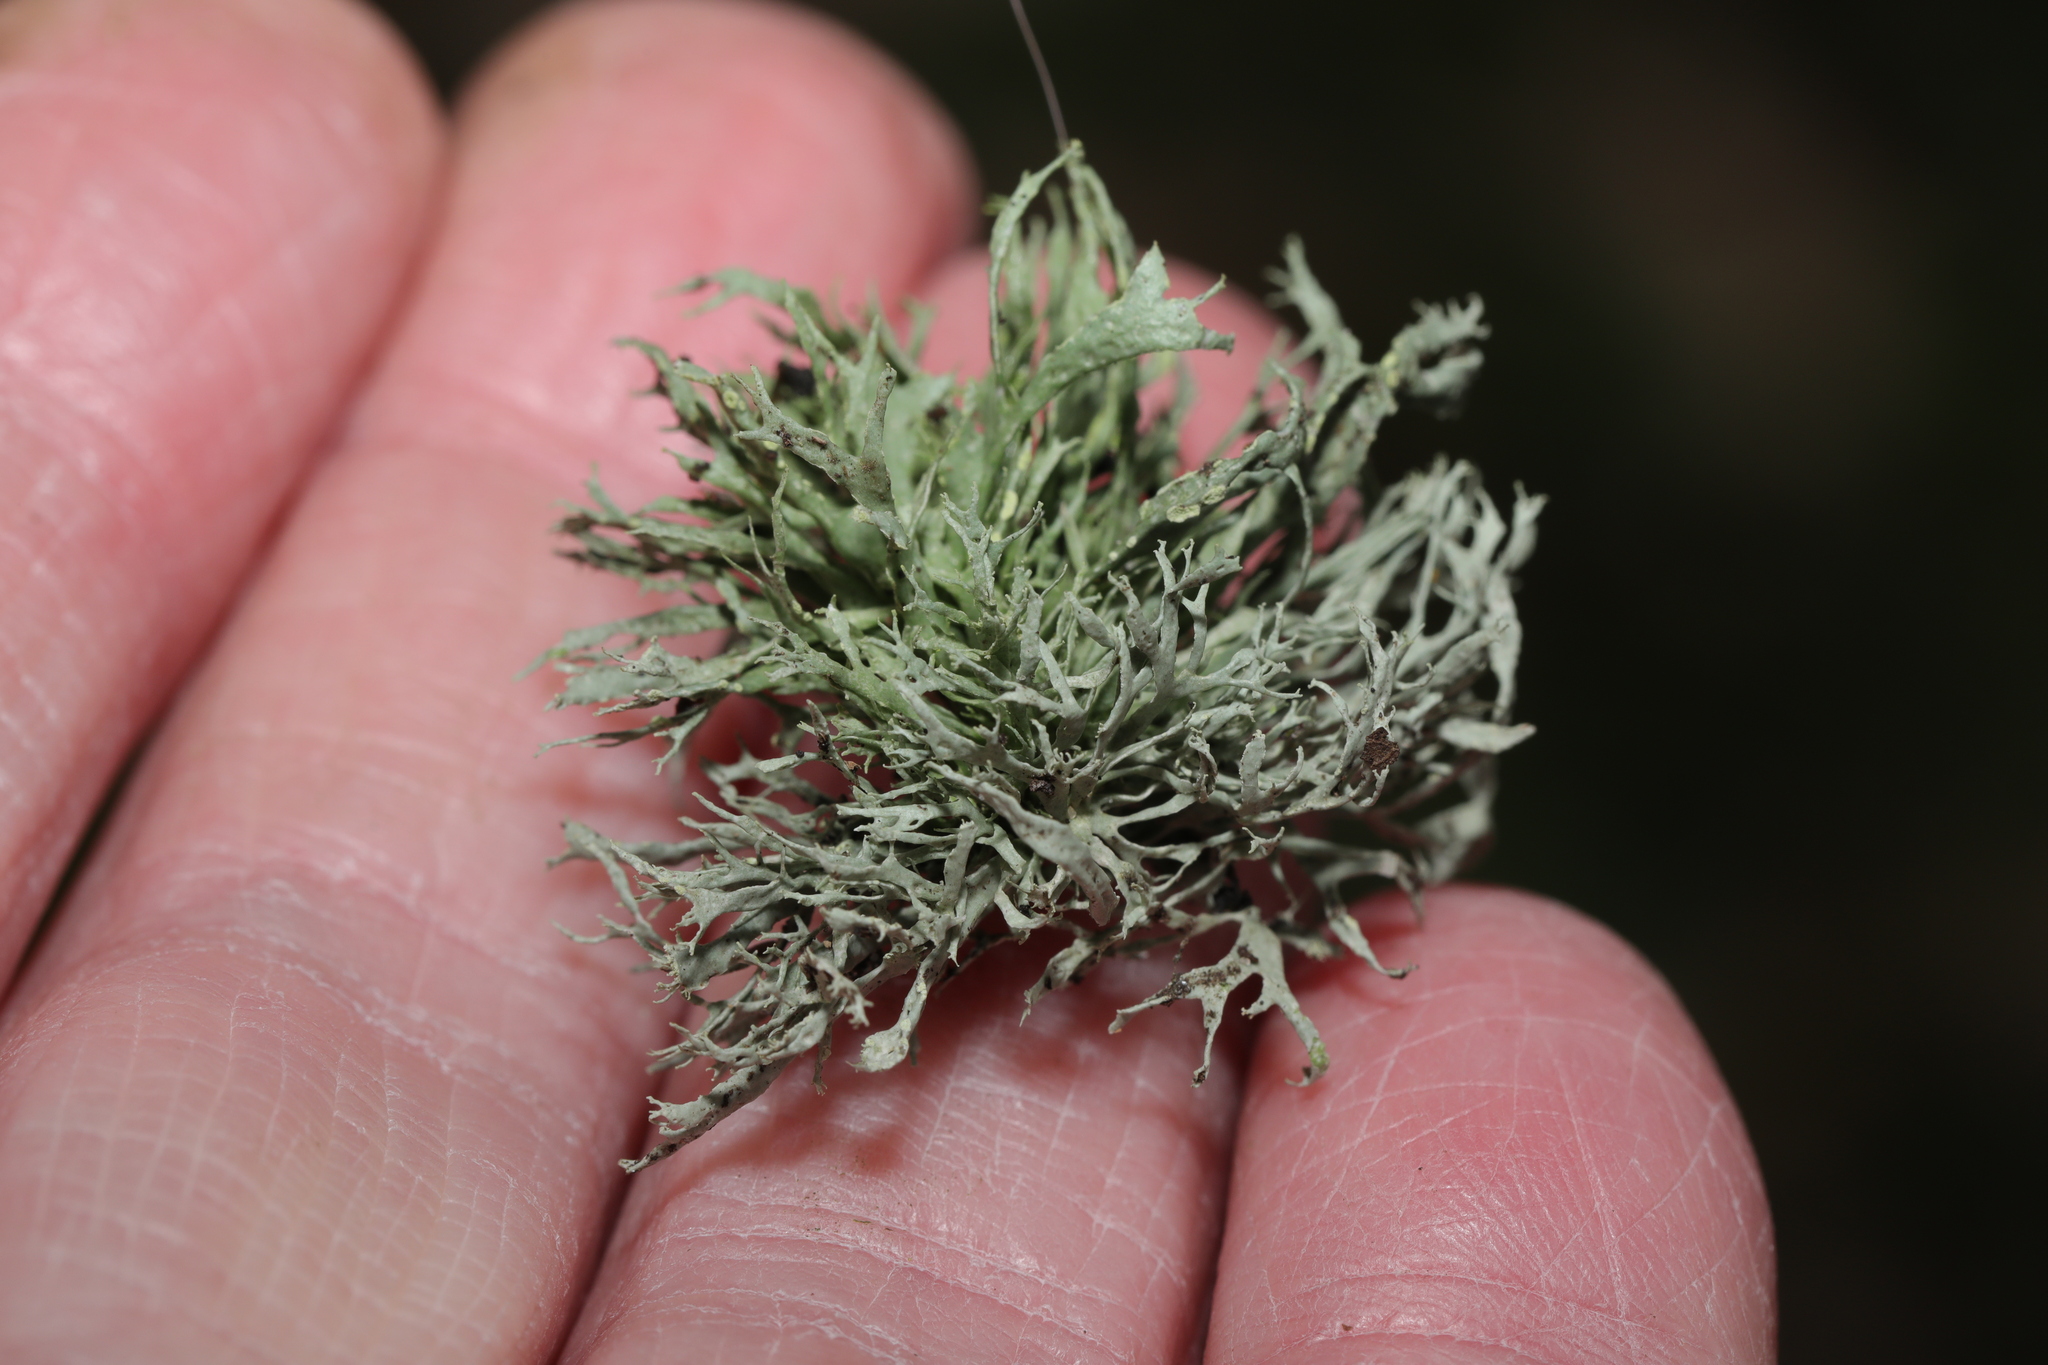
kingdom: Fungi
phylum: Ascomycota
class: Lecanoromycetes
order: Lecanorales
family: Ramalinaceae
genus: Ramalina
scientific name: Ramalina farinacea
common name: Farinose cartilage lichen
